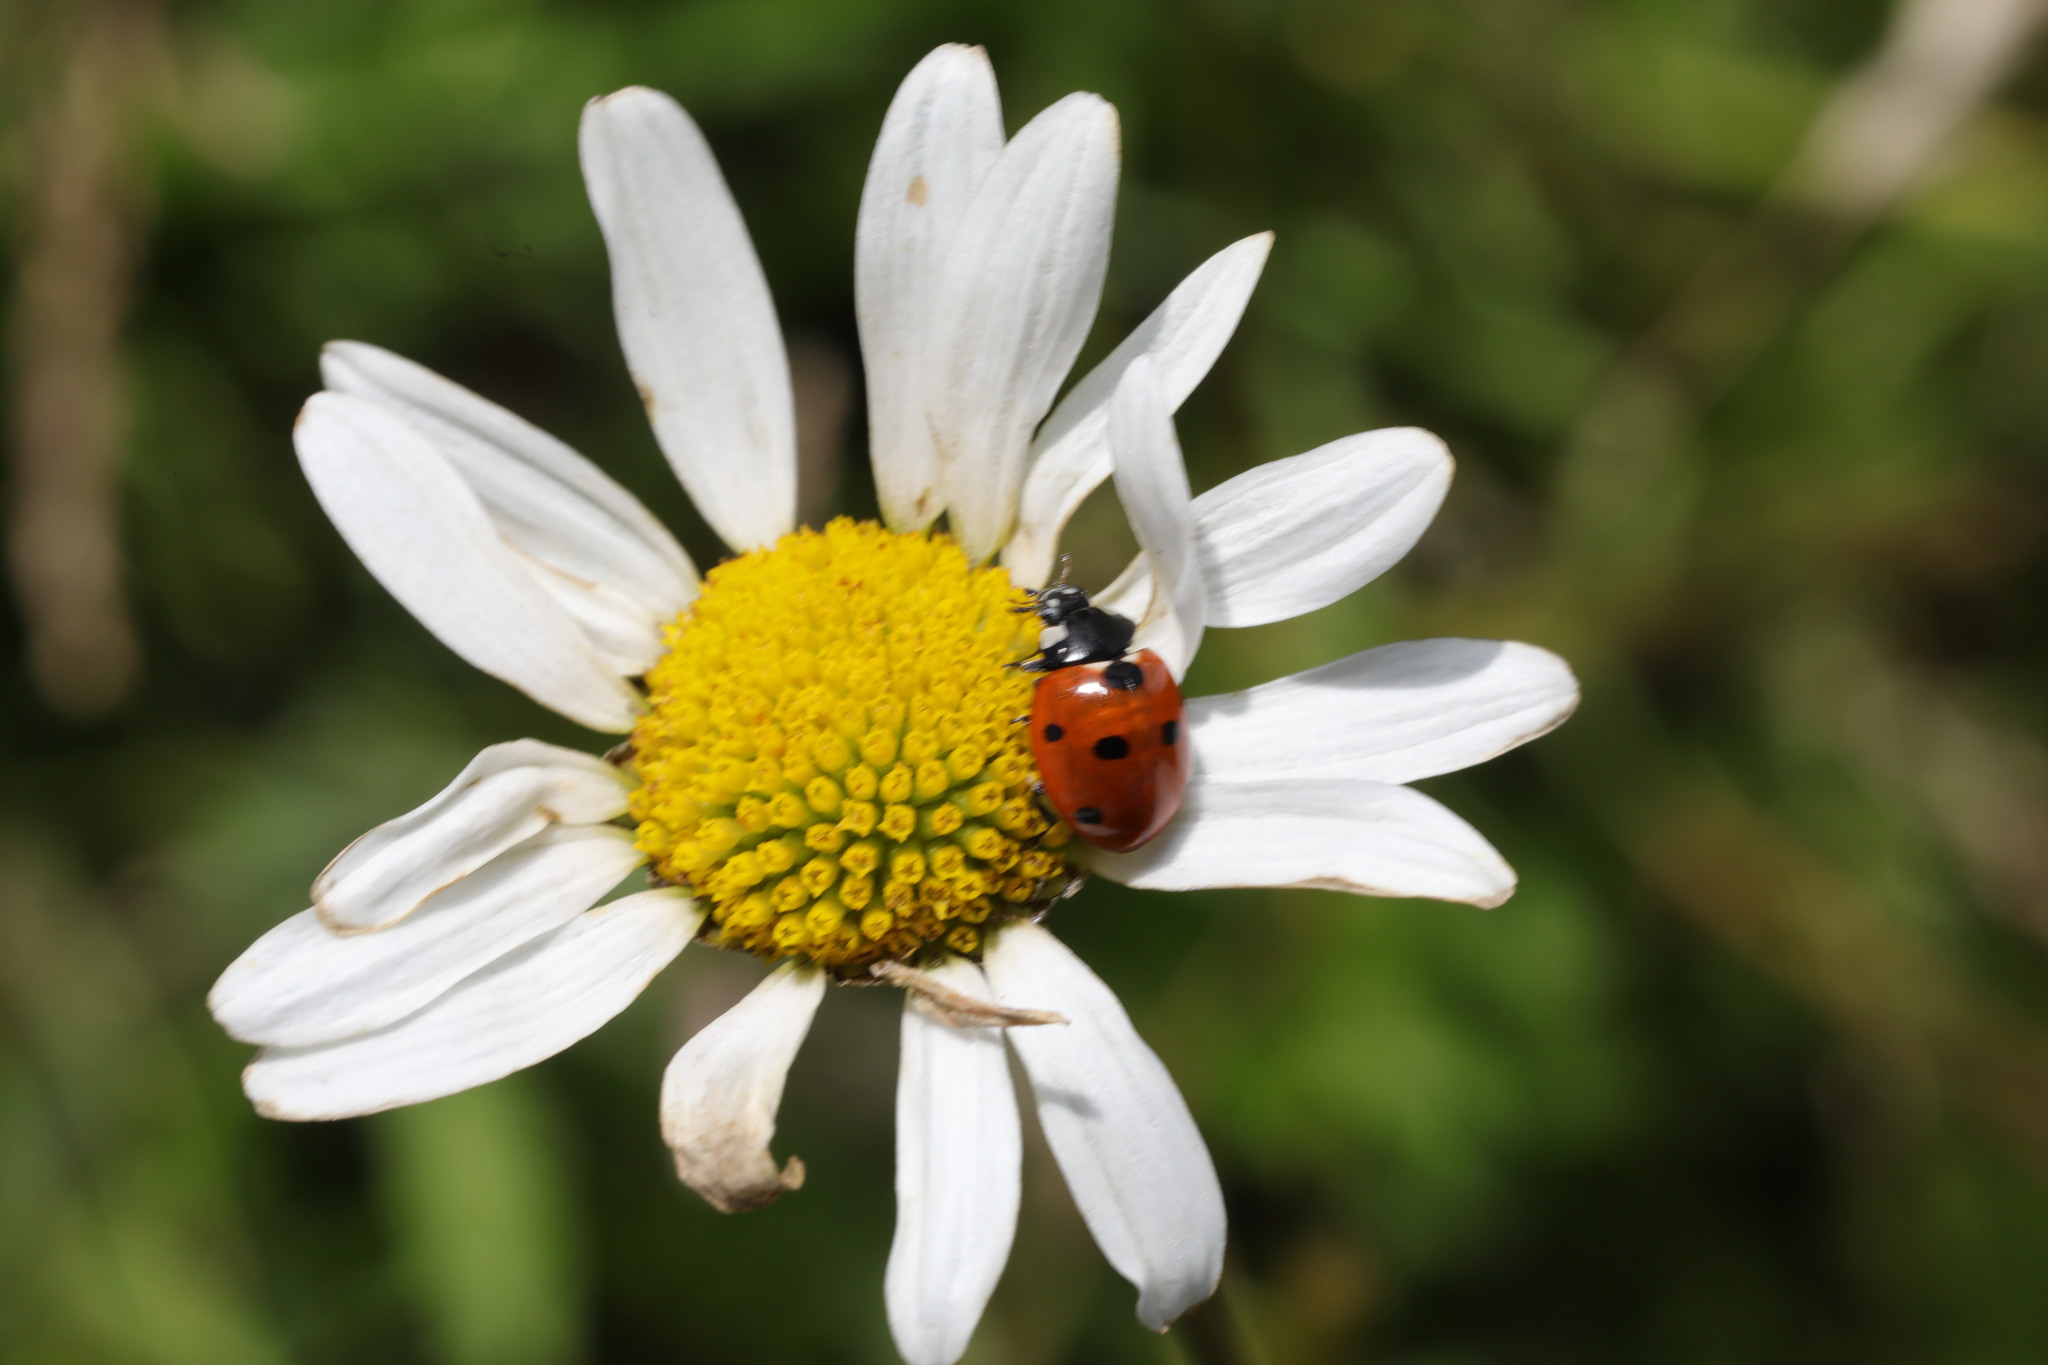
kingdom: Animalia
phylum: Arthropoda
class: Insecta
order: Coleoptera
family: Coccinellidae
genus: Coccinella
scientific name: Coccinella septempunctata
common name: Sevenspotted lady beetle
